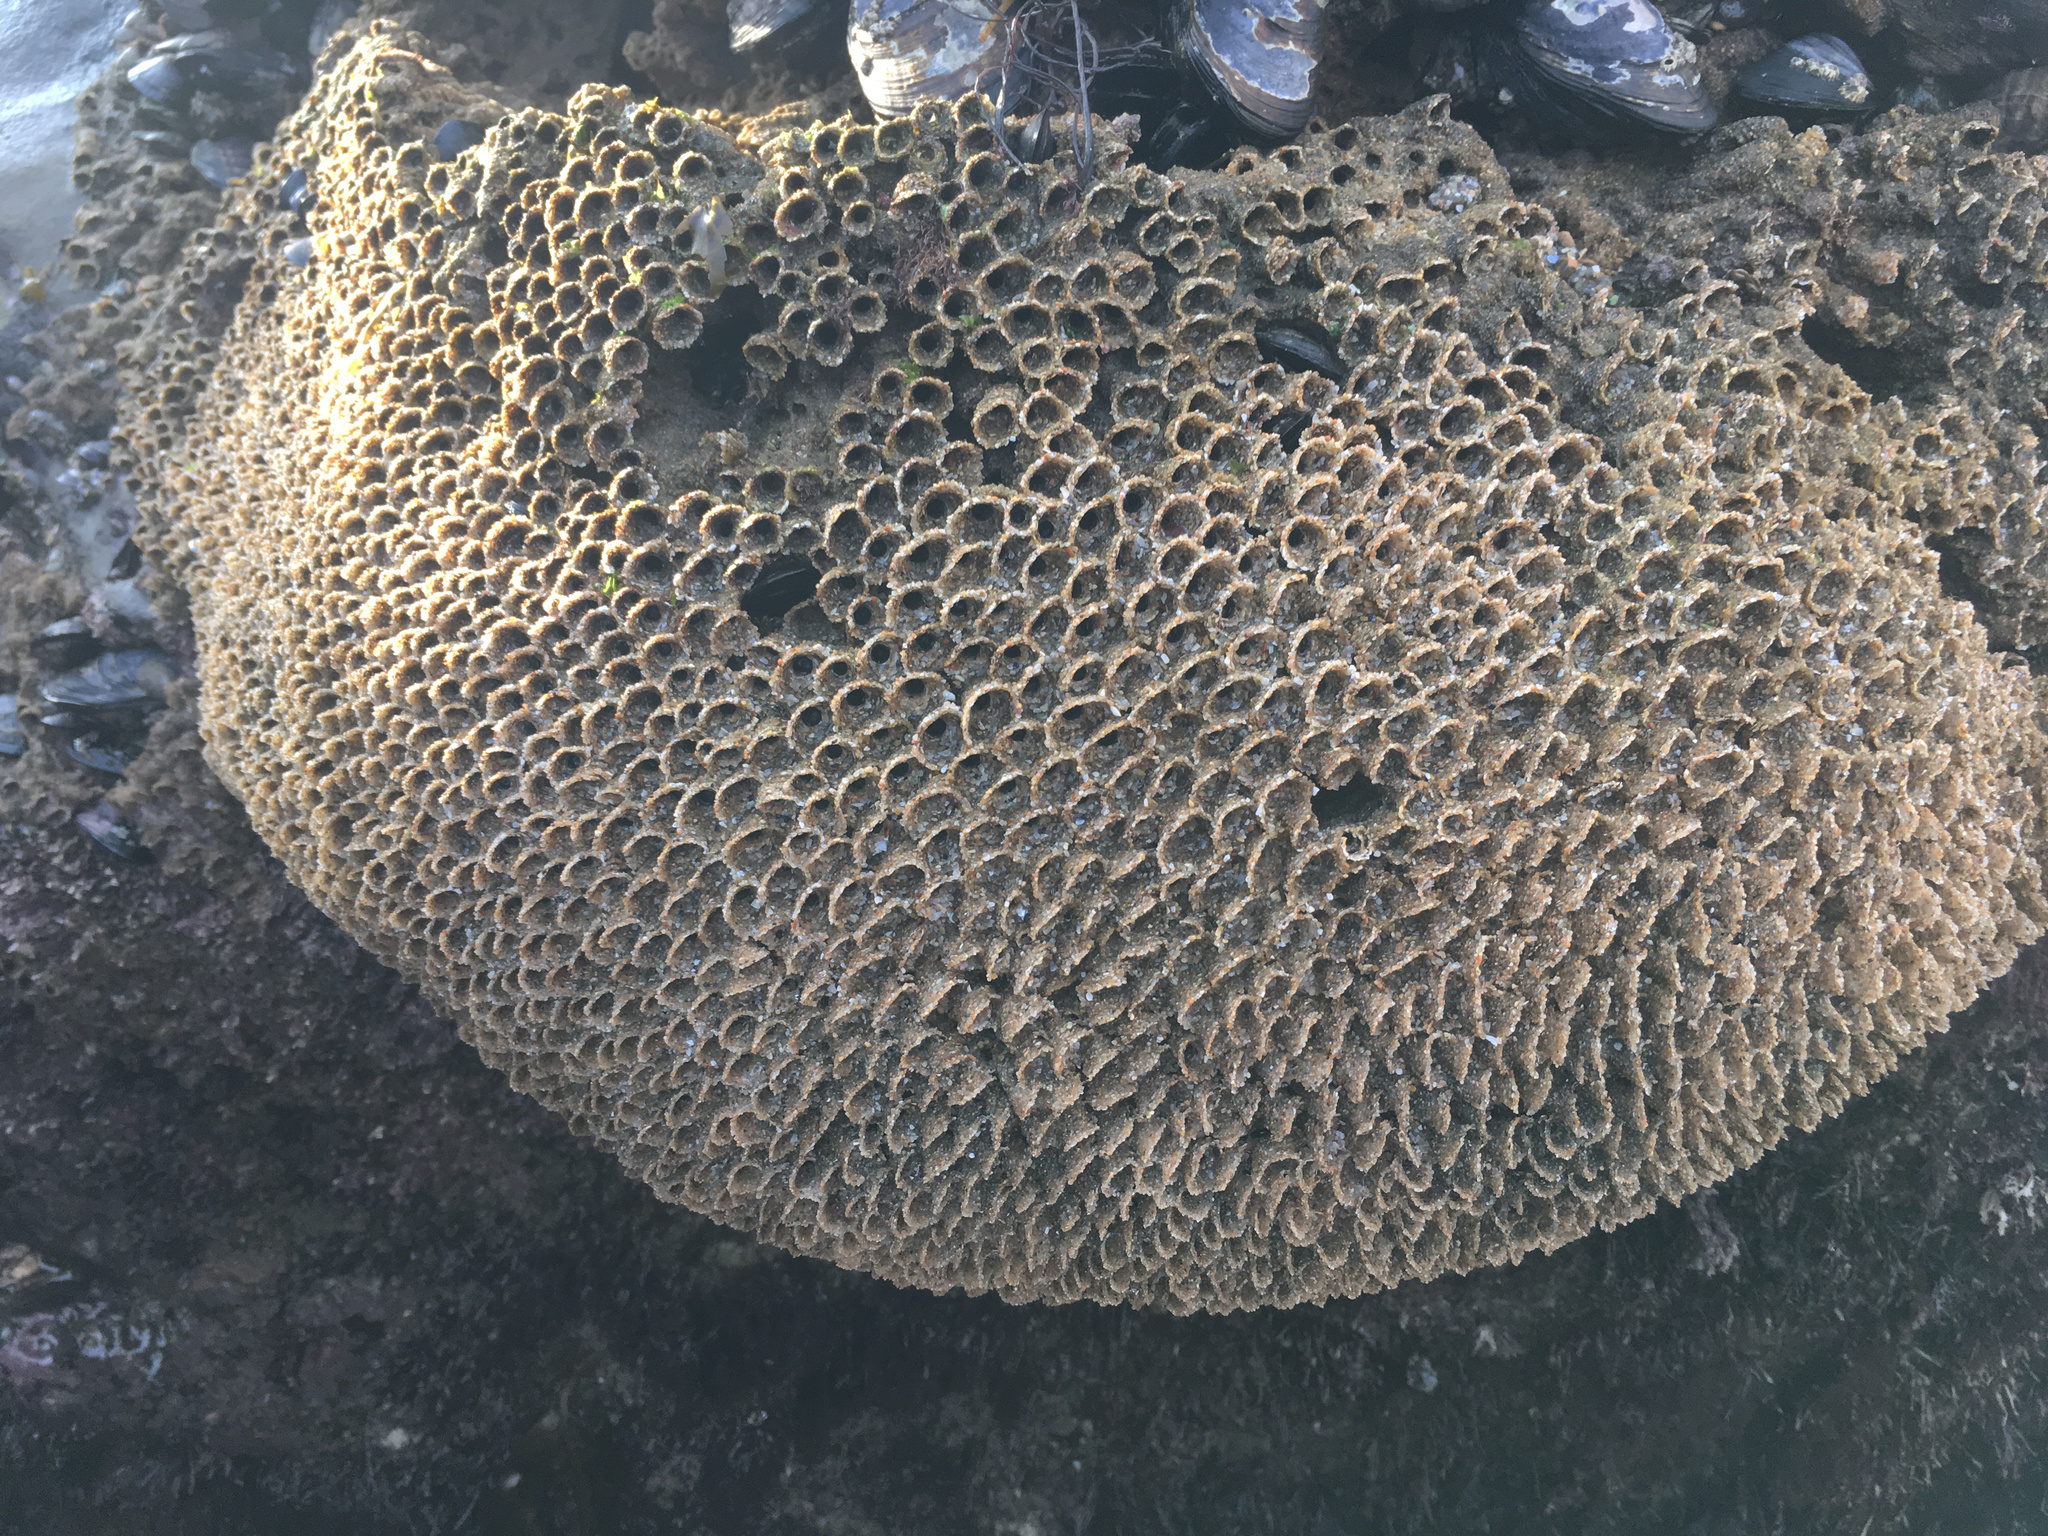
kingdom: Animalia
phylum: Annelida
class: Polychaeta
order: Sabellida
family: Sabellariidae
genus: Phragmatopoma
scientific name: Phragmatopoma californica
